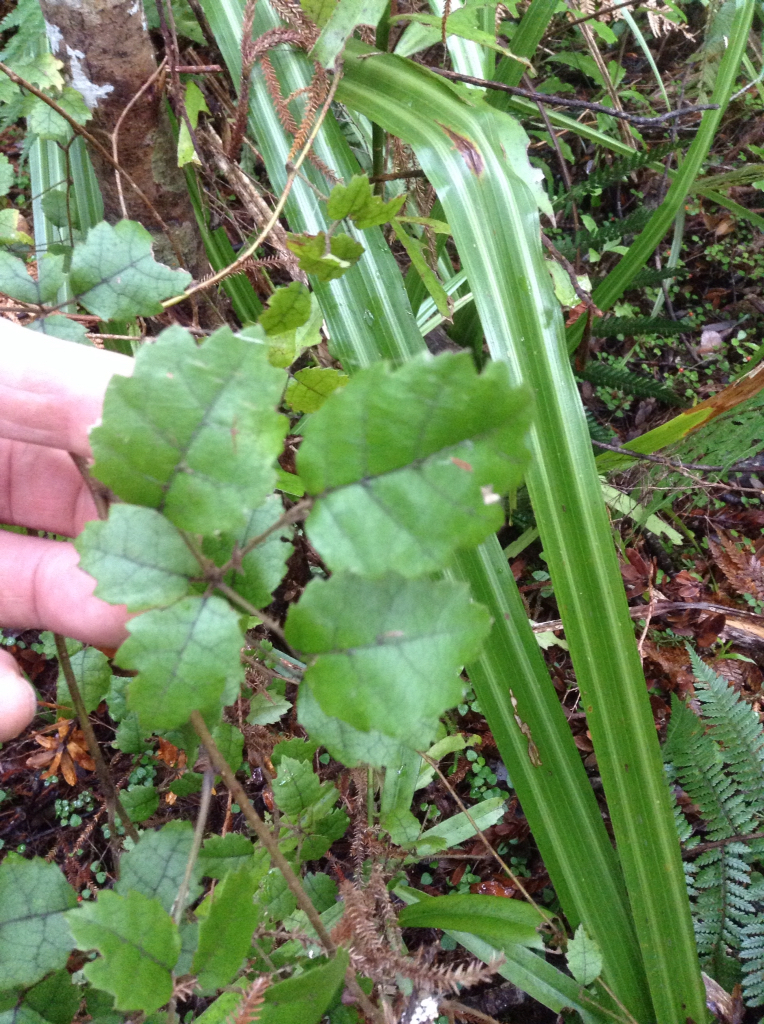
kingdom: Plantae
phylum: Tracheophyta
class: Magnoliopsida
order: Rosales
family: Rosaceae
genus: Rubus
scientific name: Rubus australis
